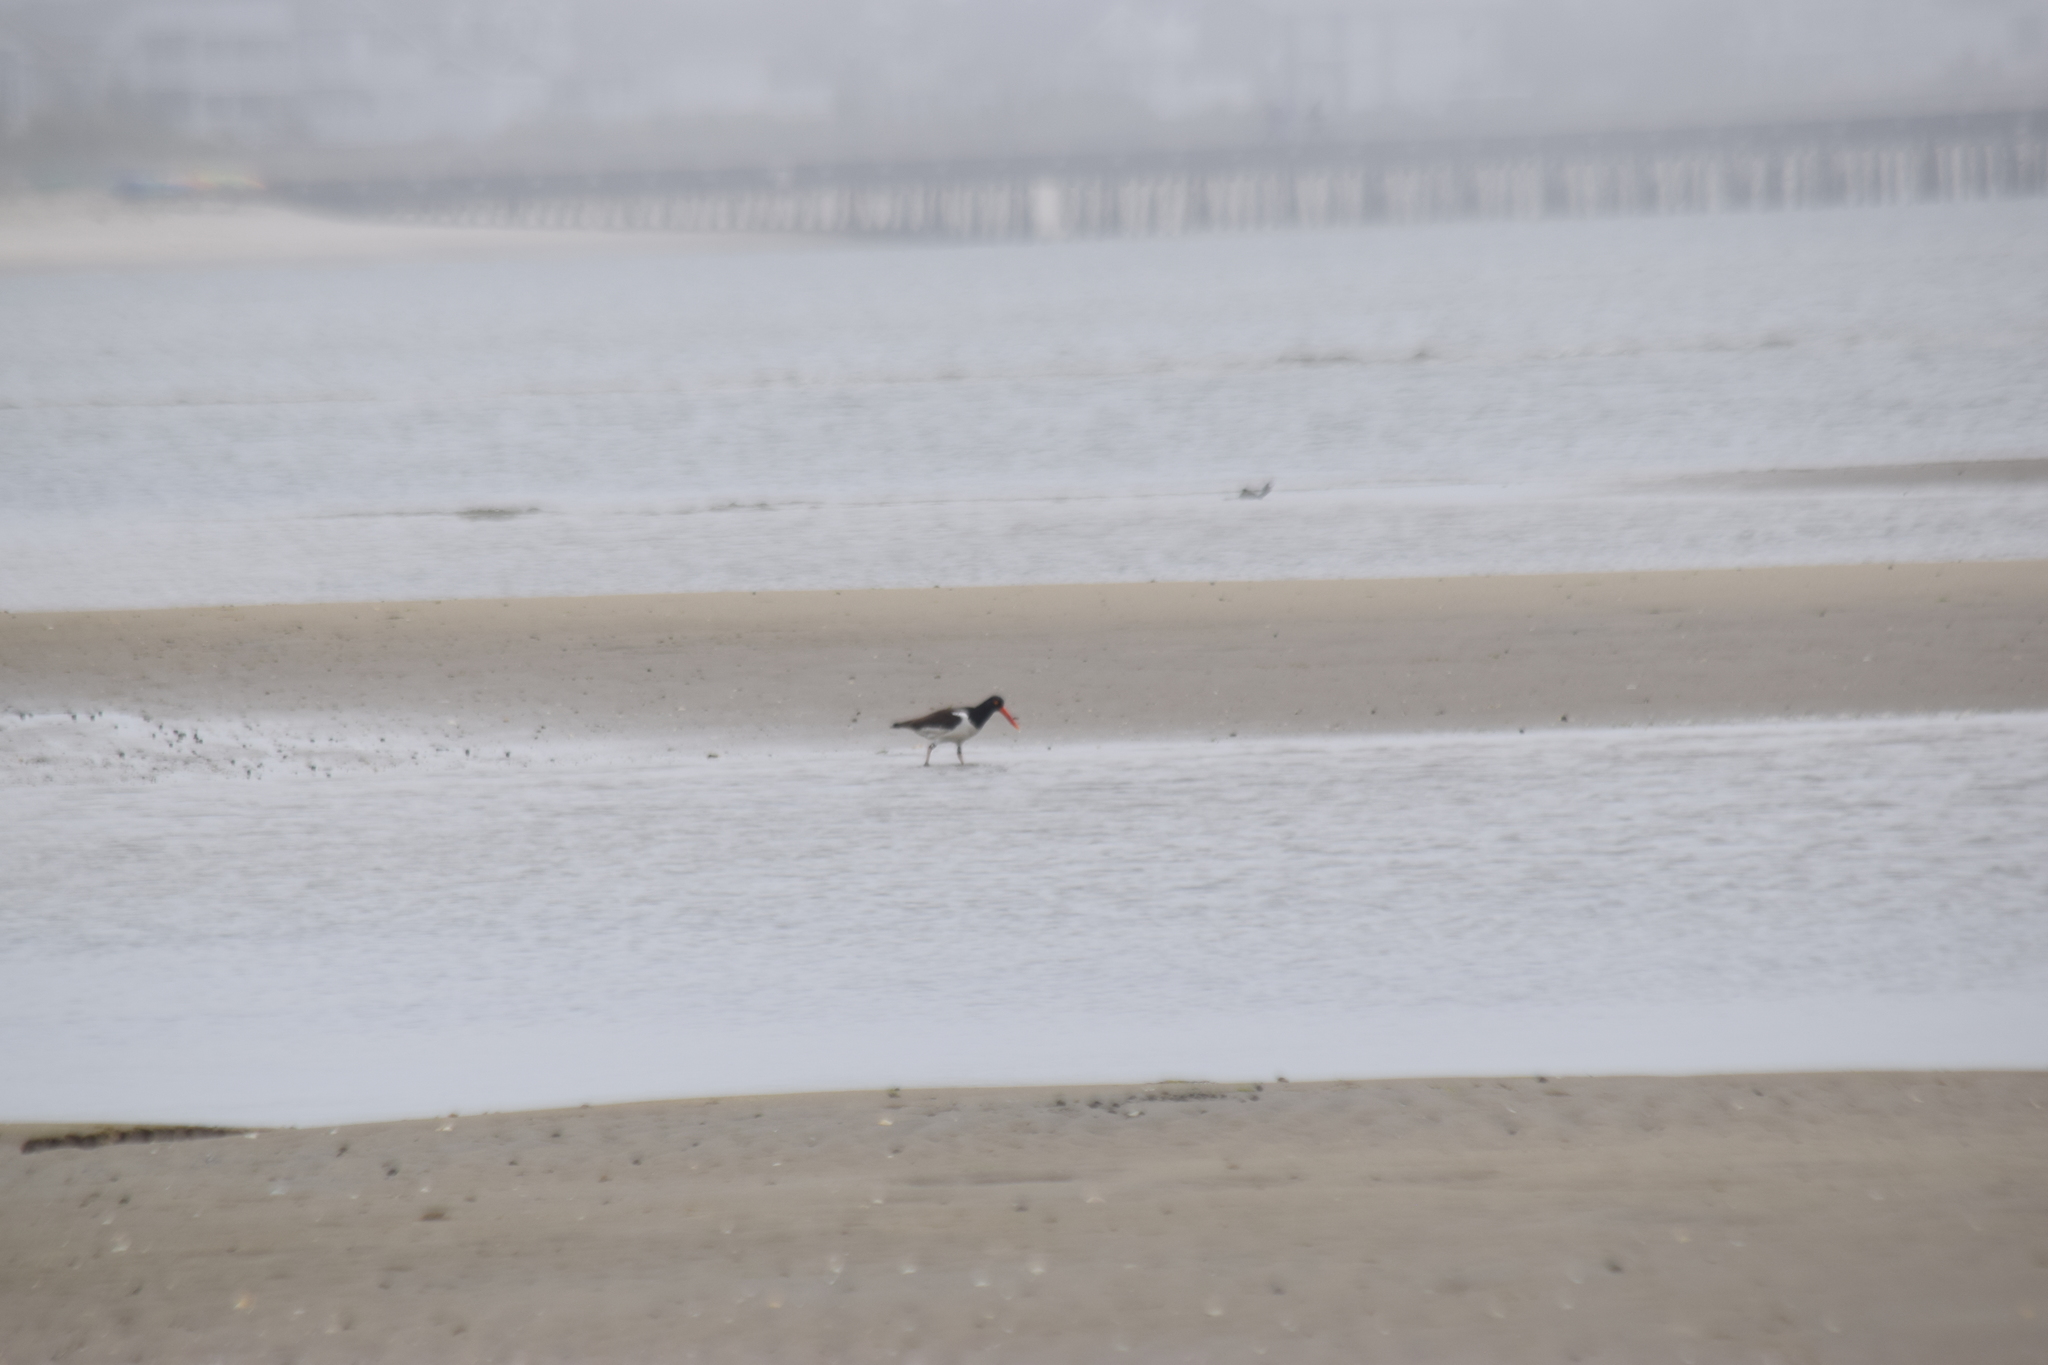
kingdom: Animalia
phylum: Chordata
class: Aves
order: Charadriiformes
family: Haematopodidae
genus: Haematopus
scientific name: Haematopus palliatus
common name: American oystercatcher
